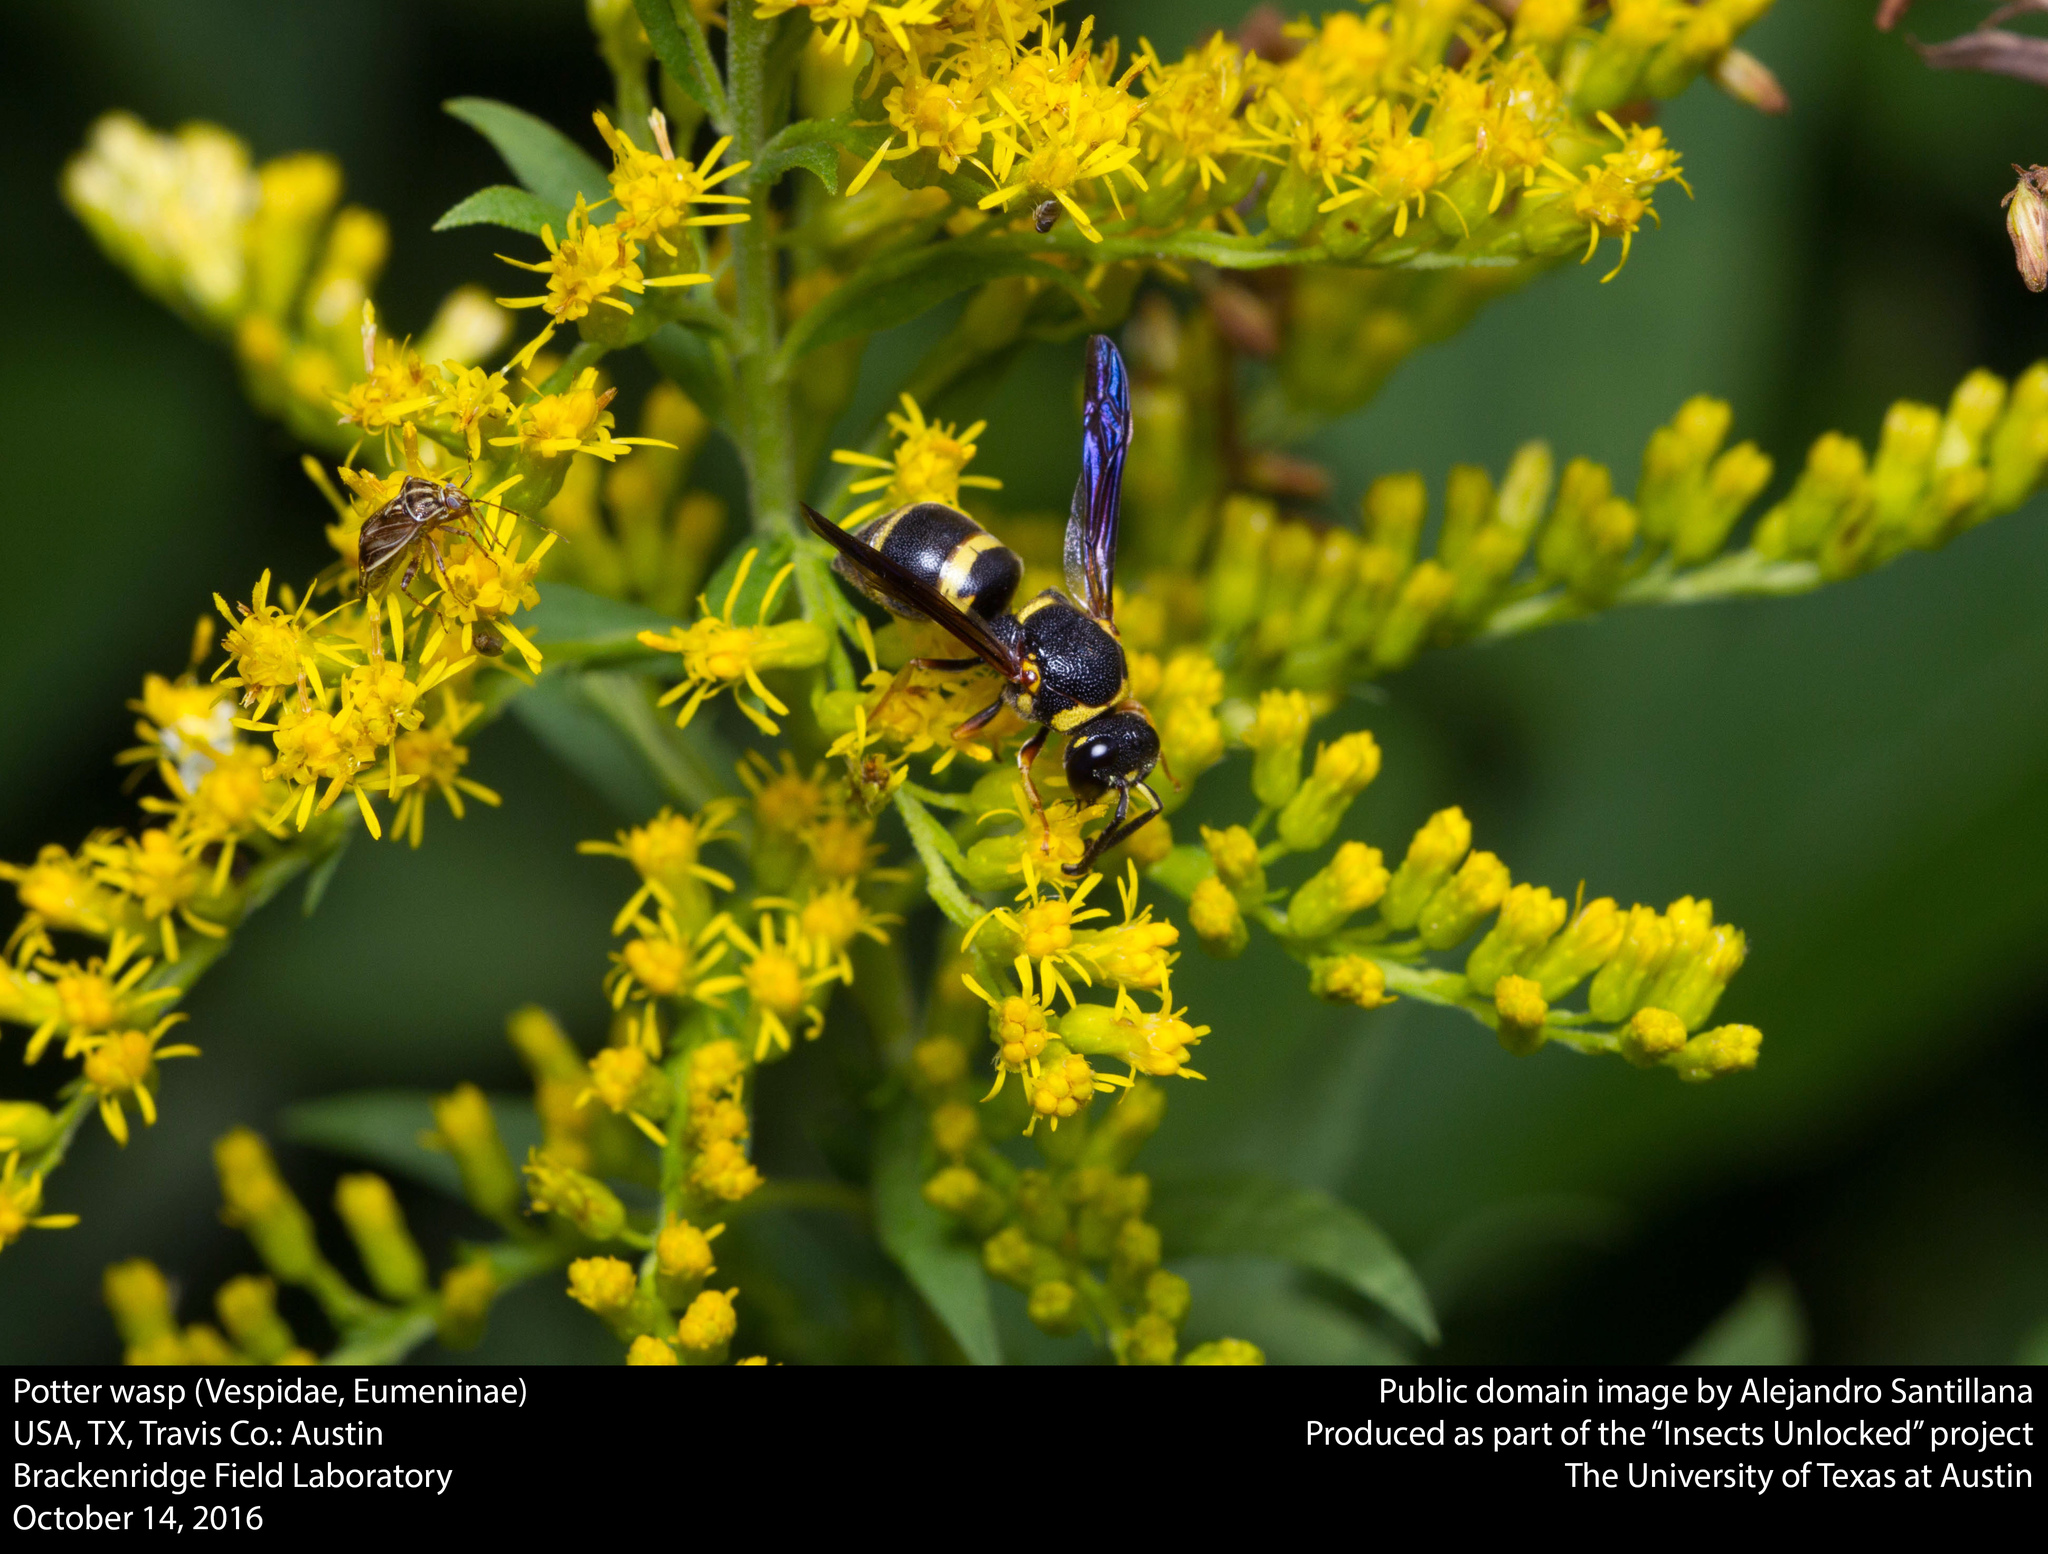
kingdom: Animalia
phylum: Arthropoda
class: Insecta
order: Hymenoptera
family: Eumenidae
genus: Euodynerus
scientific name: Euodynerus foraminatus
